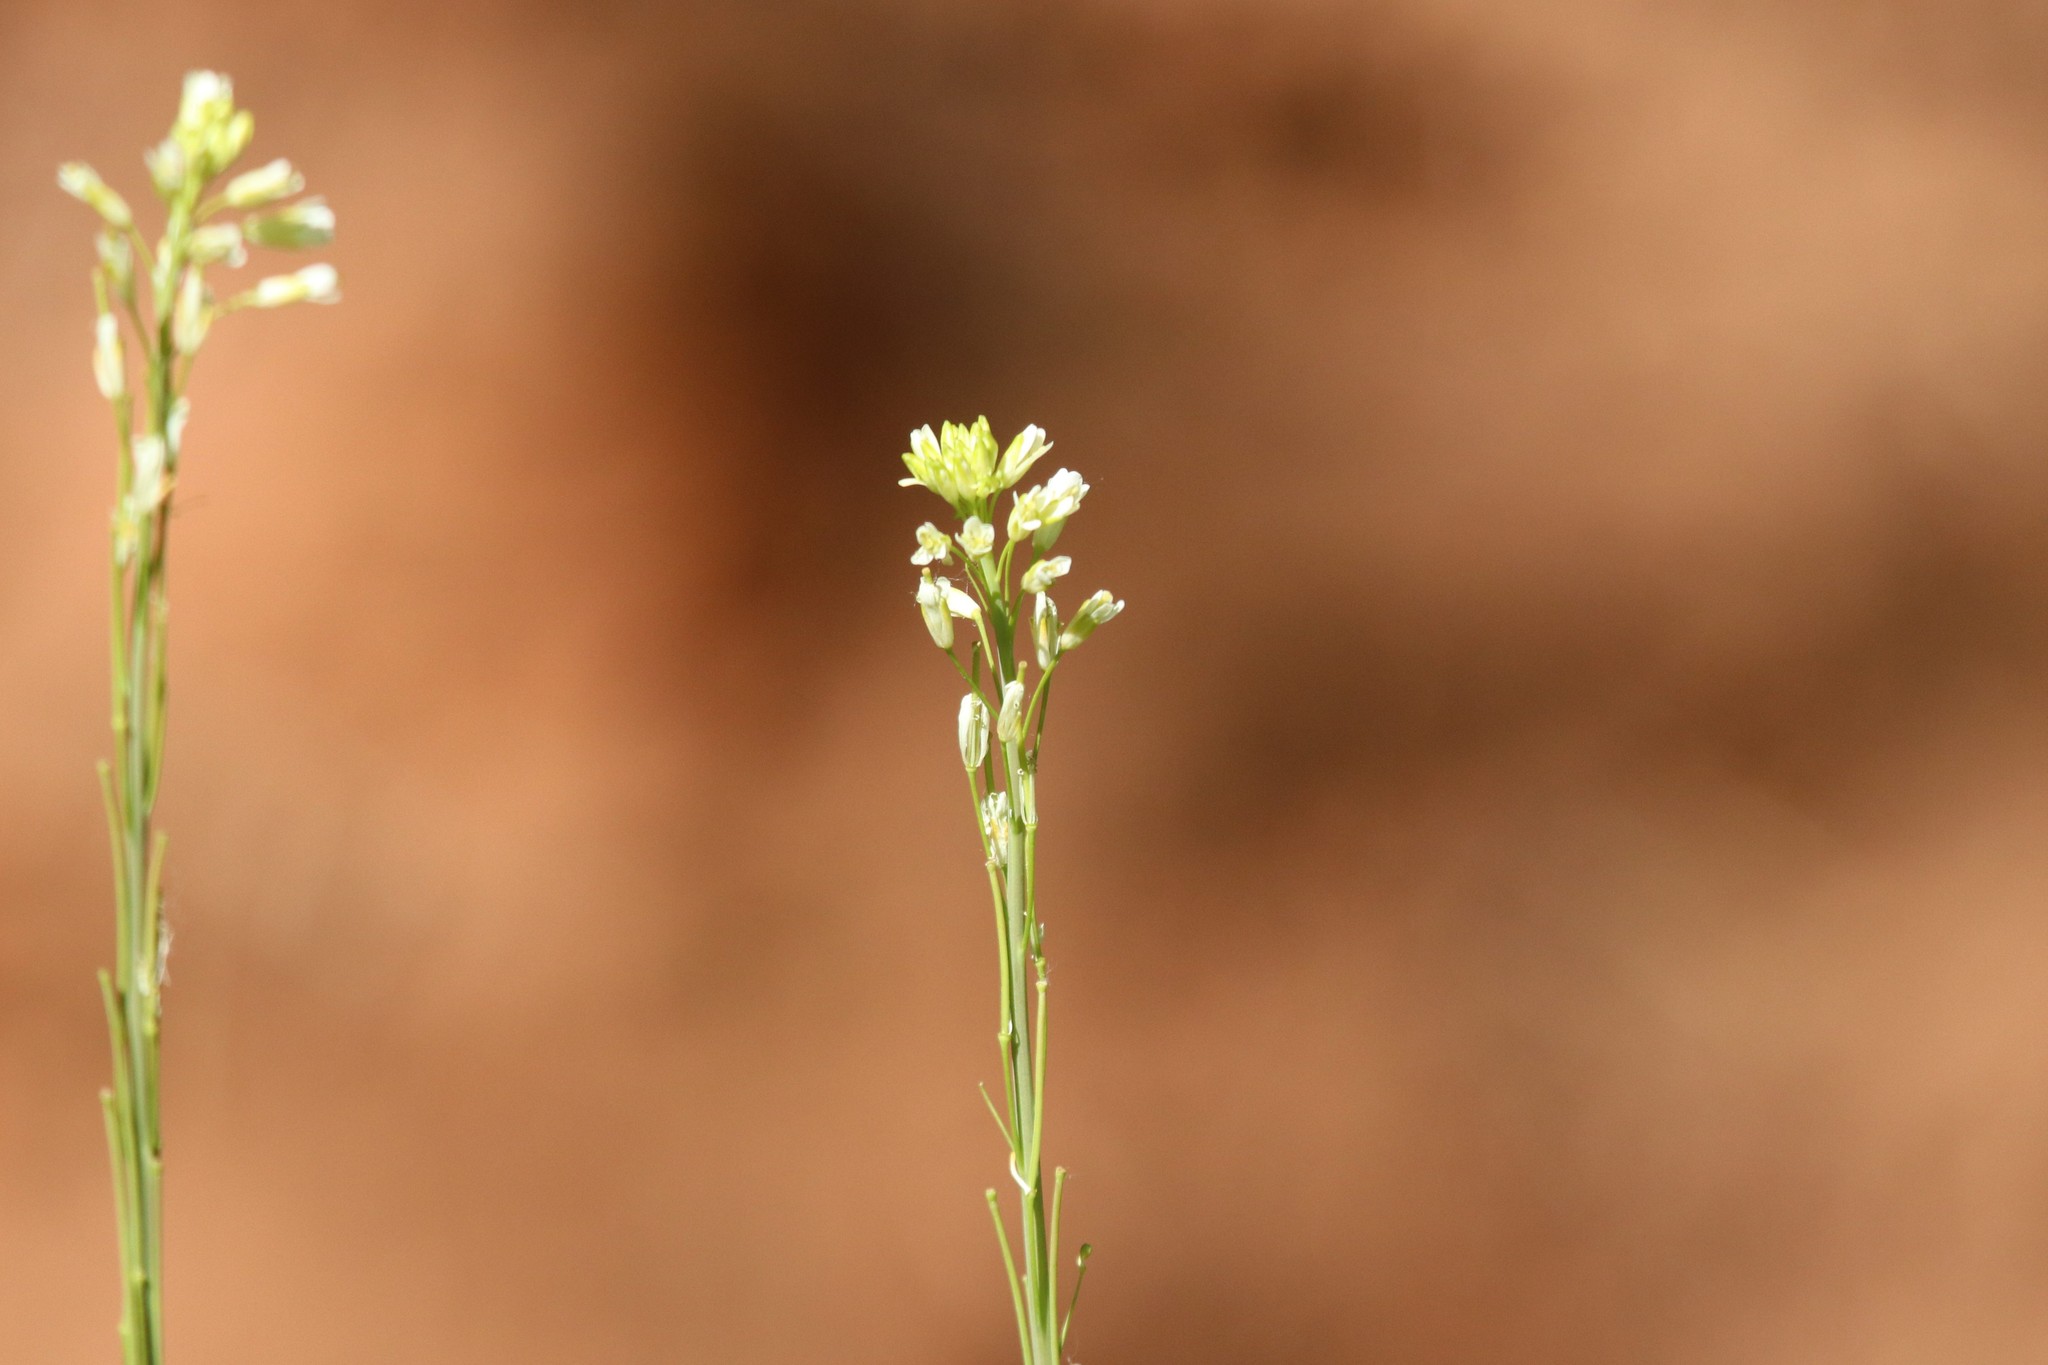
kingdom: Plantae
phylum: Tracheophyta
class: Magnoliopsida
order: Brassicales
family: Brassicaceae
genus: Turritis
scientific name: Turritis glabra
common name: Tower rockcress
